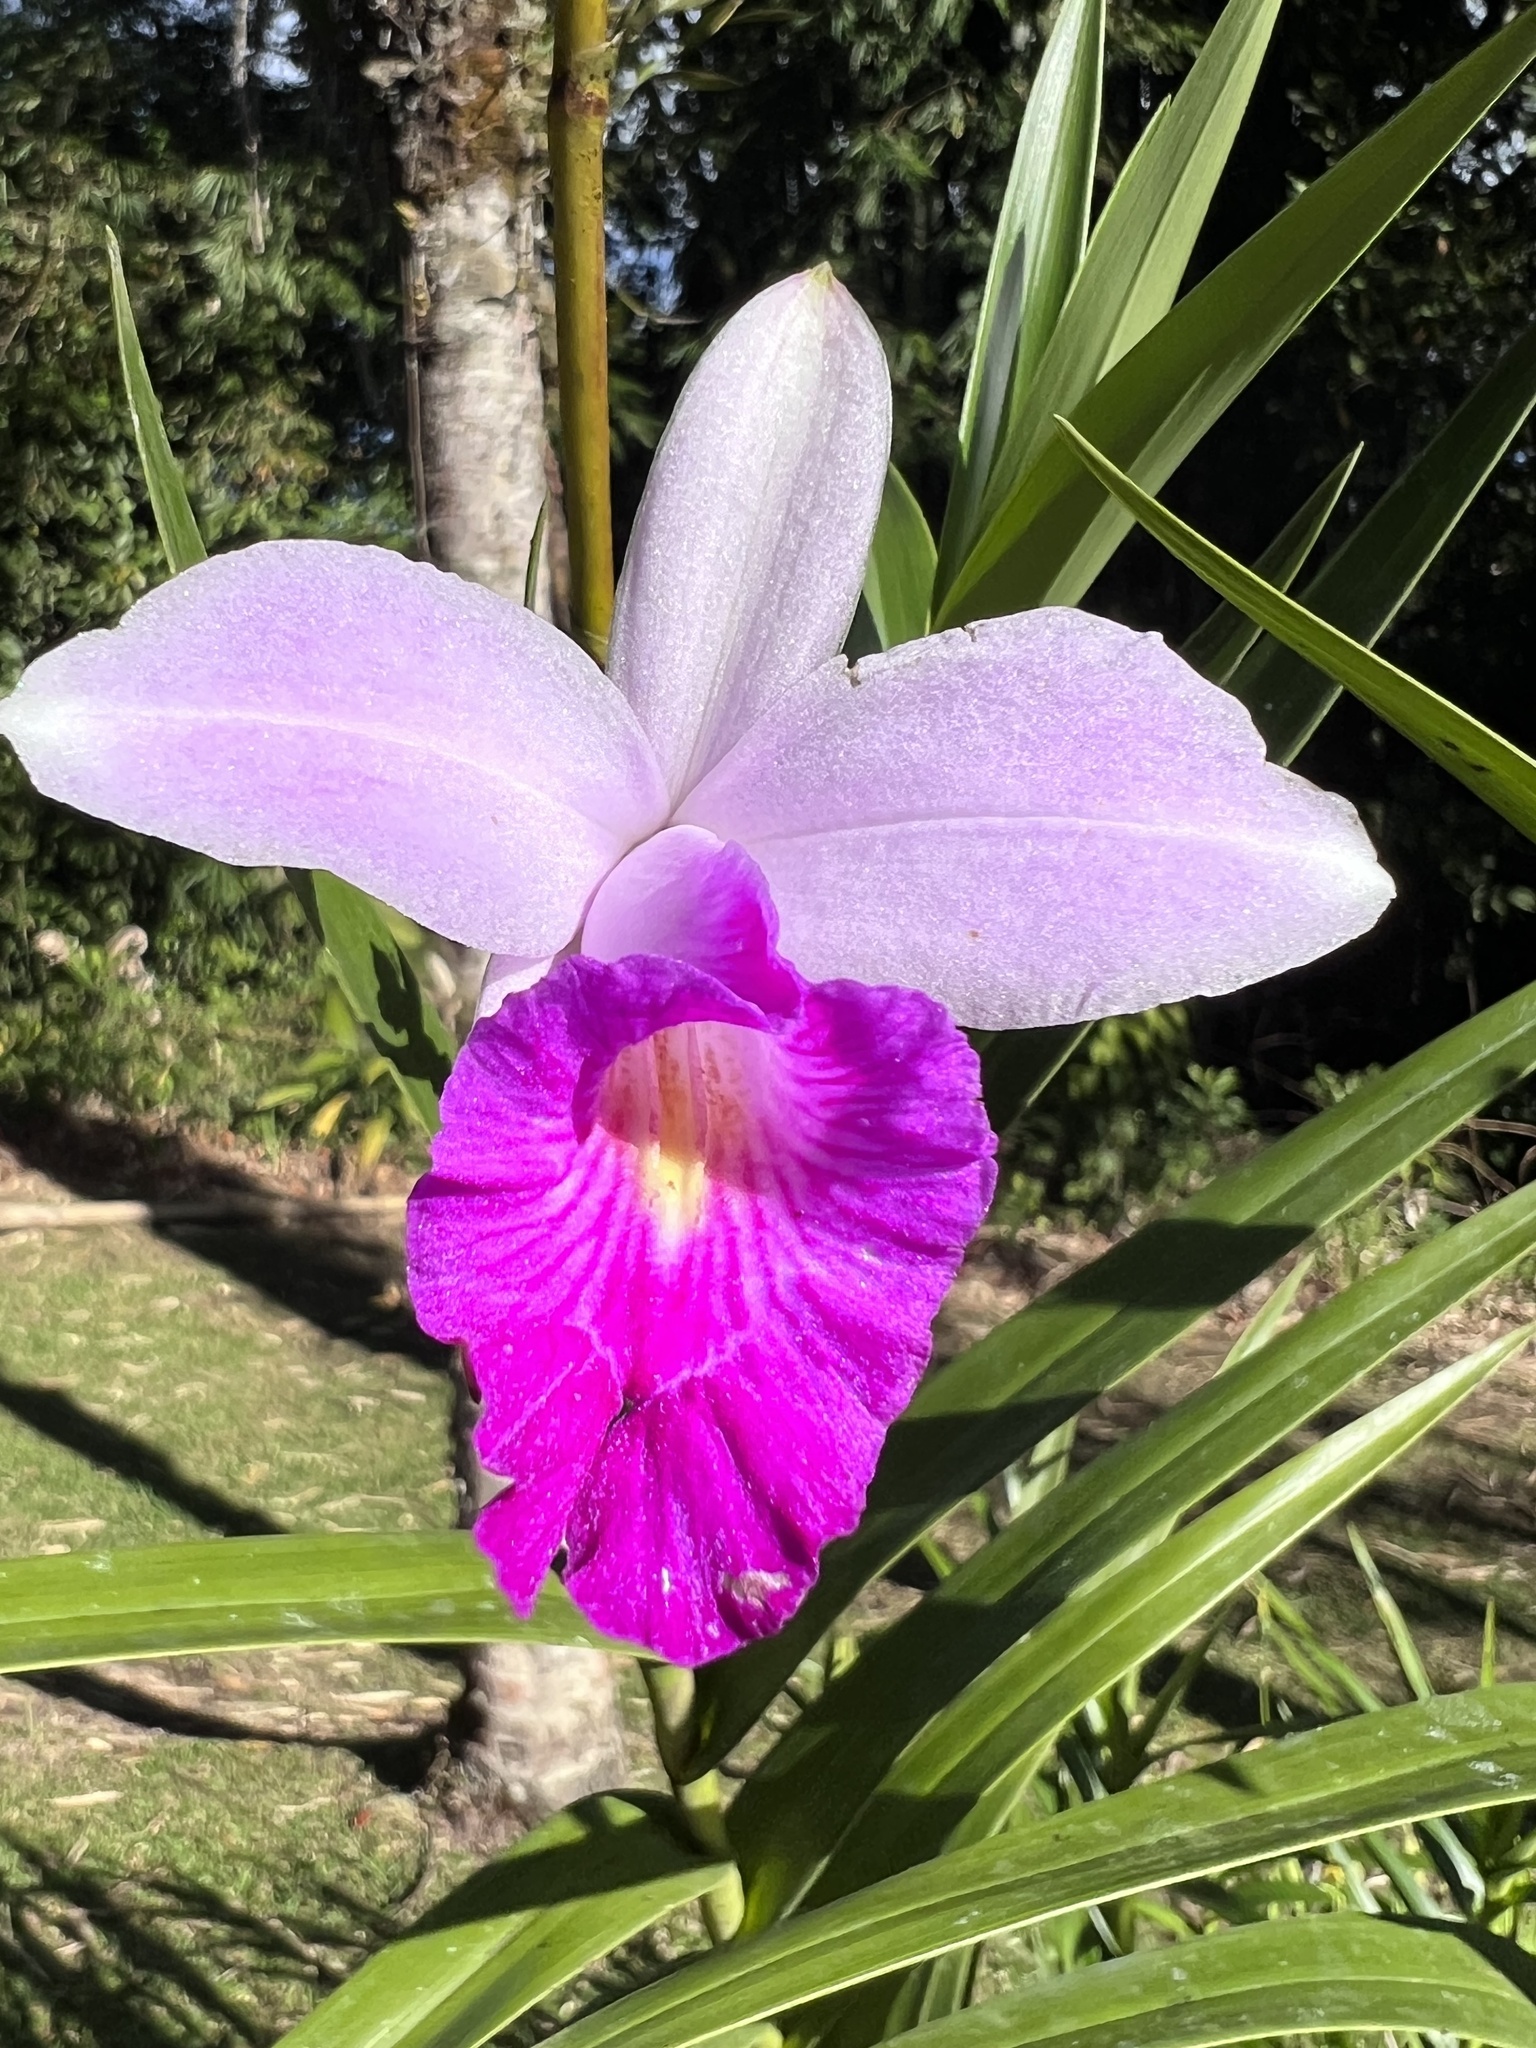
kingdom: Plantae
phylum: Tracheophyta
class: Liliopsida
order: Asparagales
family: Orchidaceae
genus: Arundina
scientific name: Arundina graminifolia
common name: Bamboo orchid
